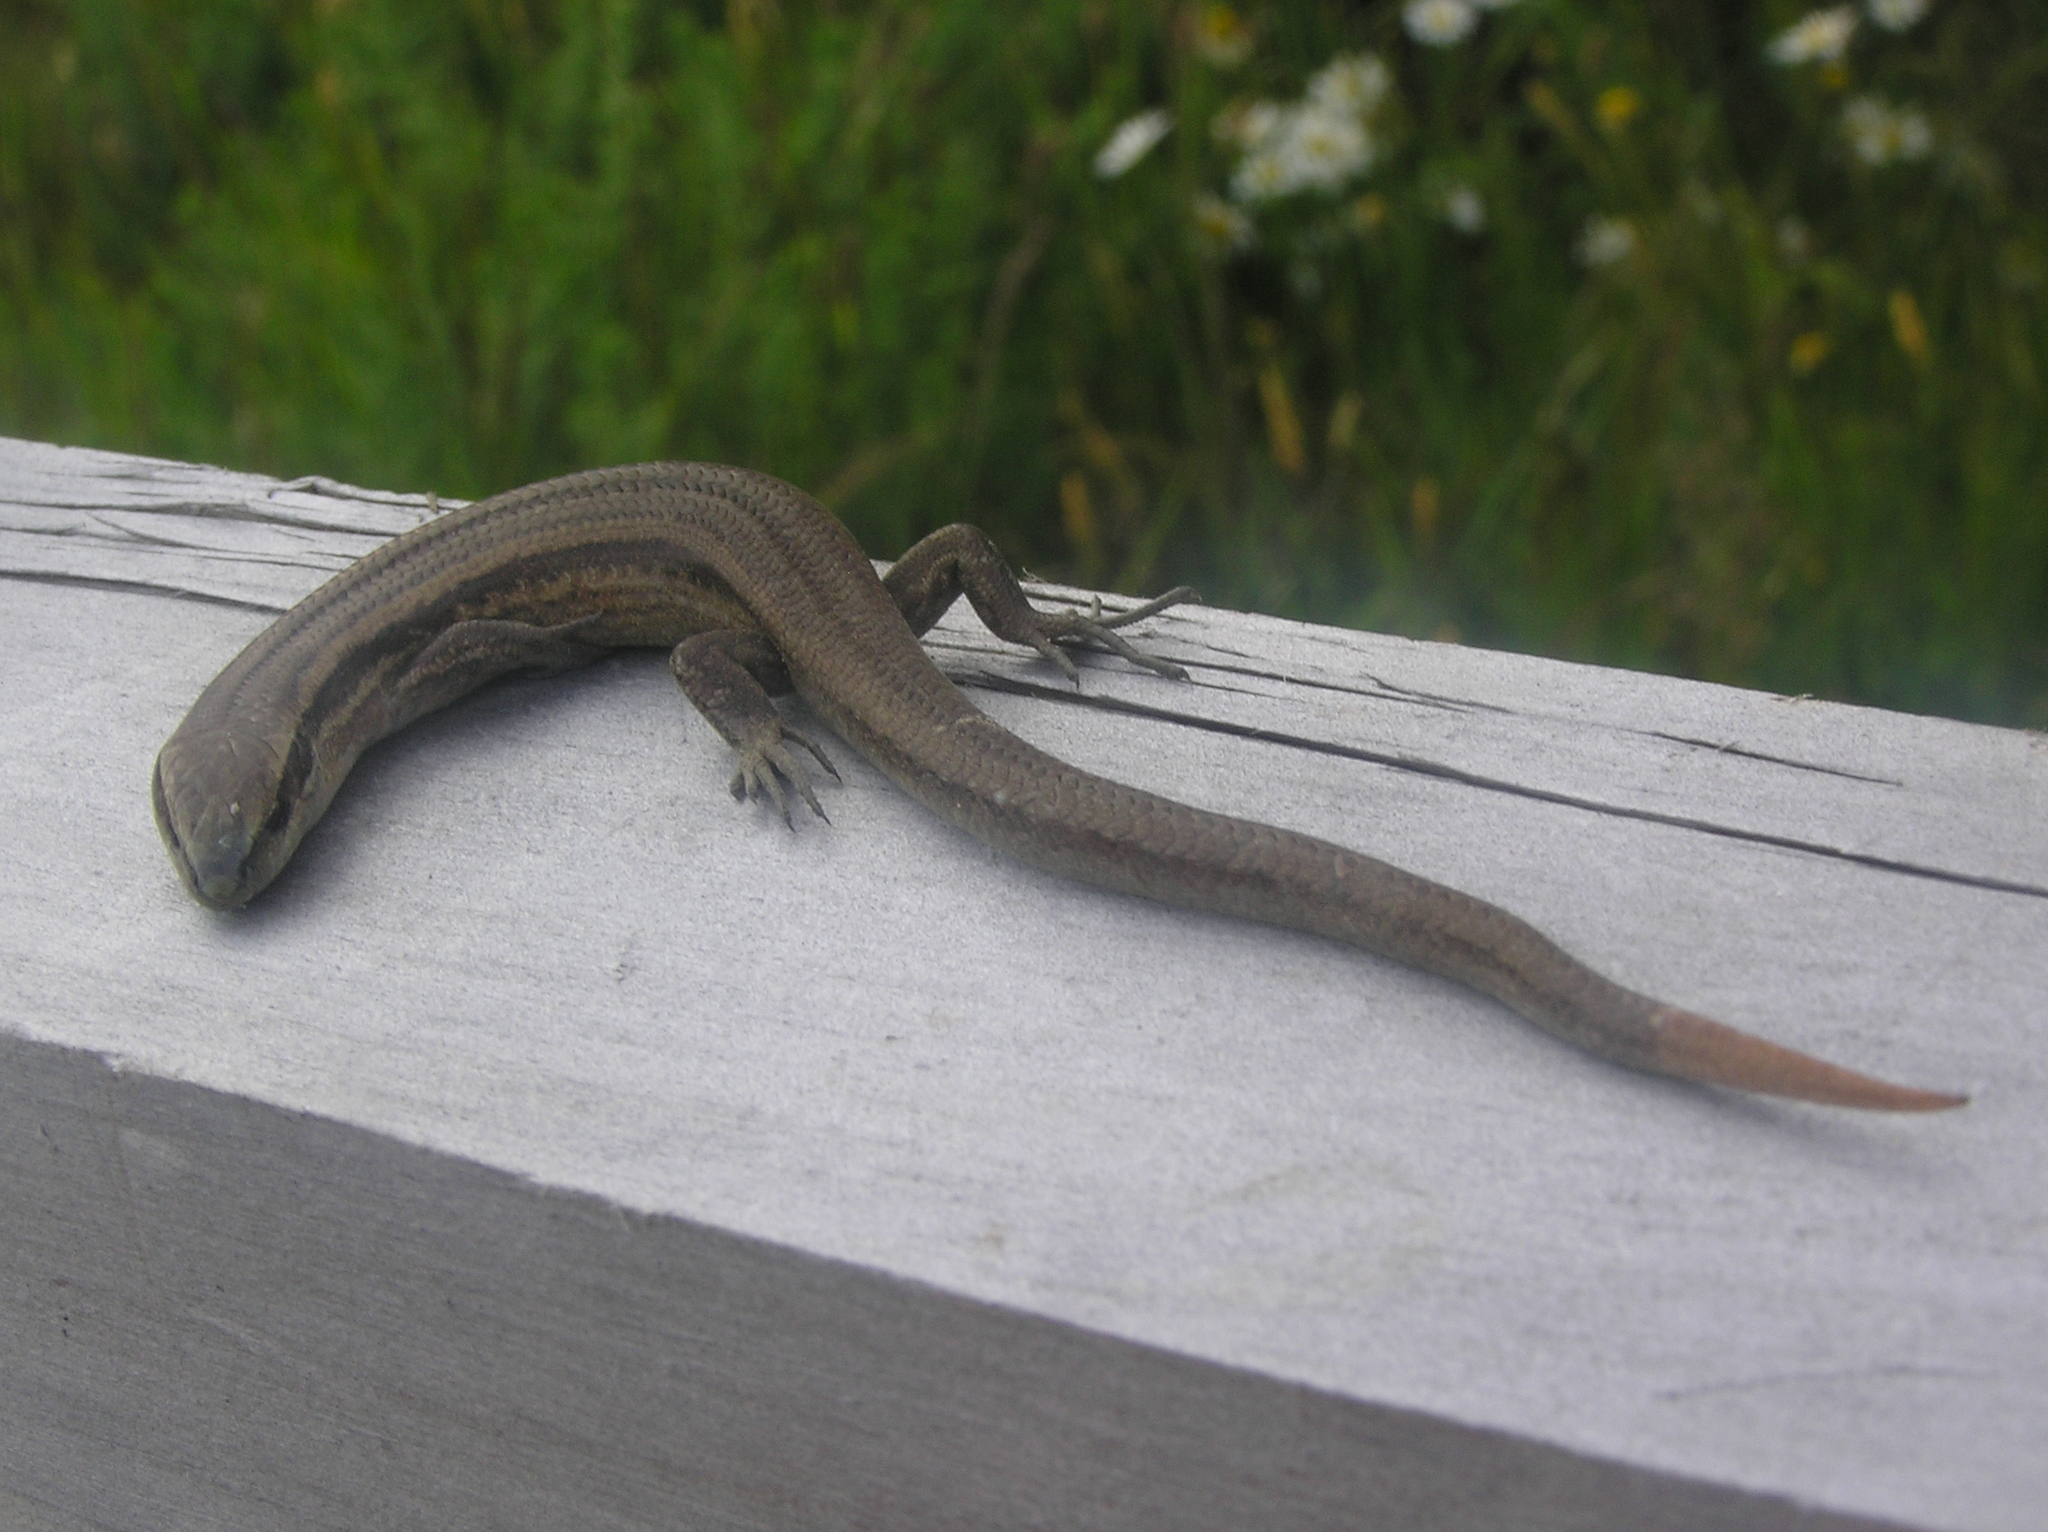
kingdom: Animalia
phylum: Chordata
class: Squamata
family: Scincidae
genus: Oligosoma
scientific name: Oligosoma polychroma
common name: Common new zealand skink
